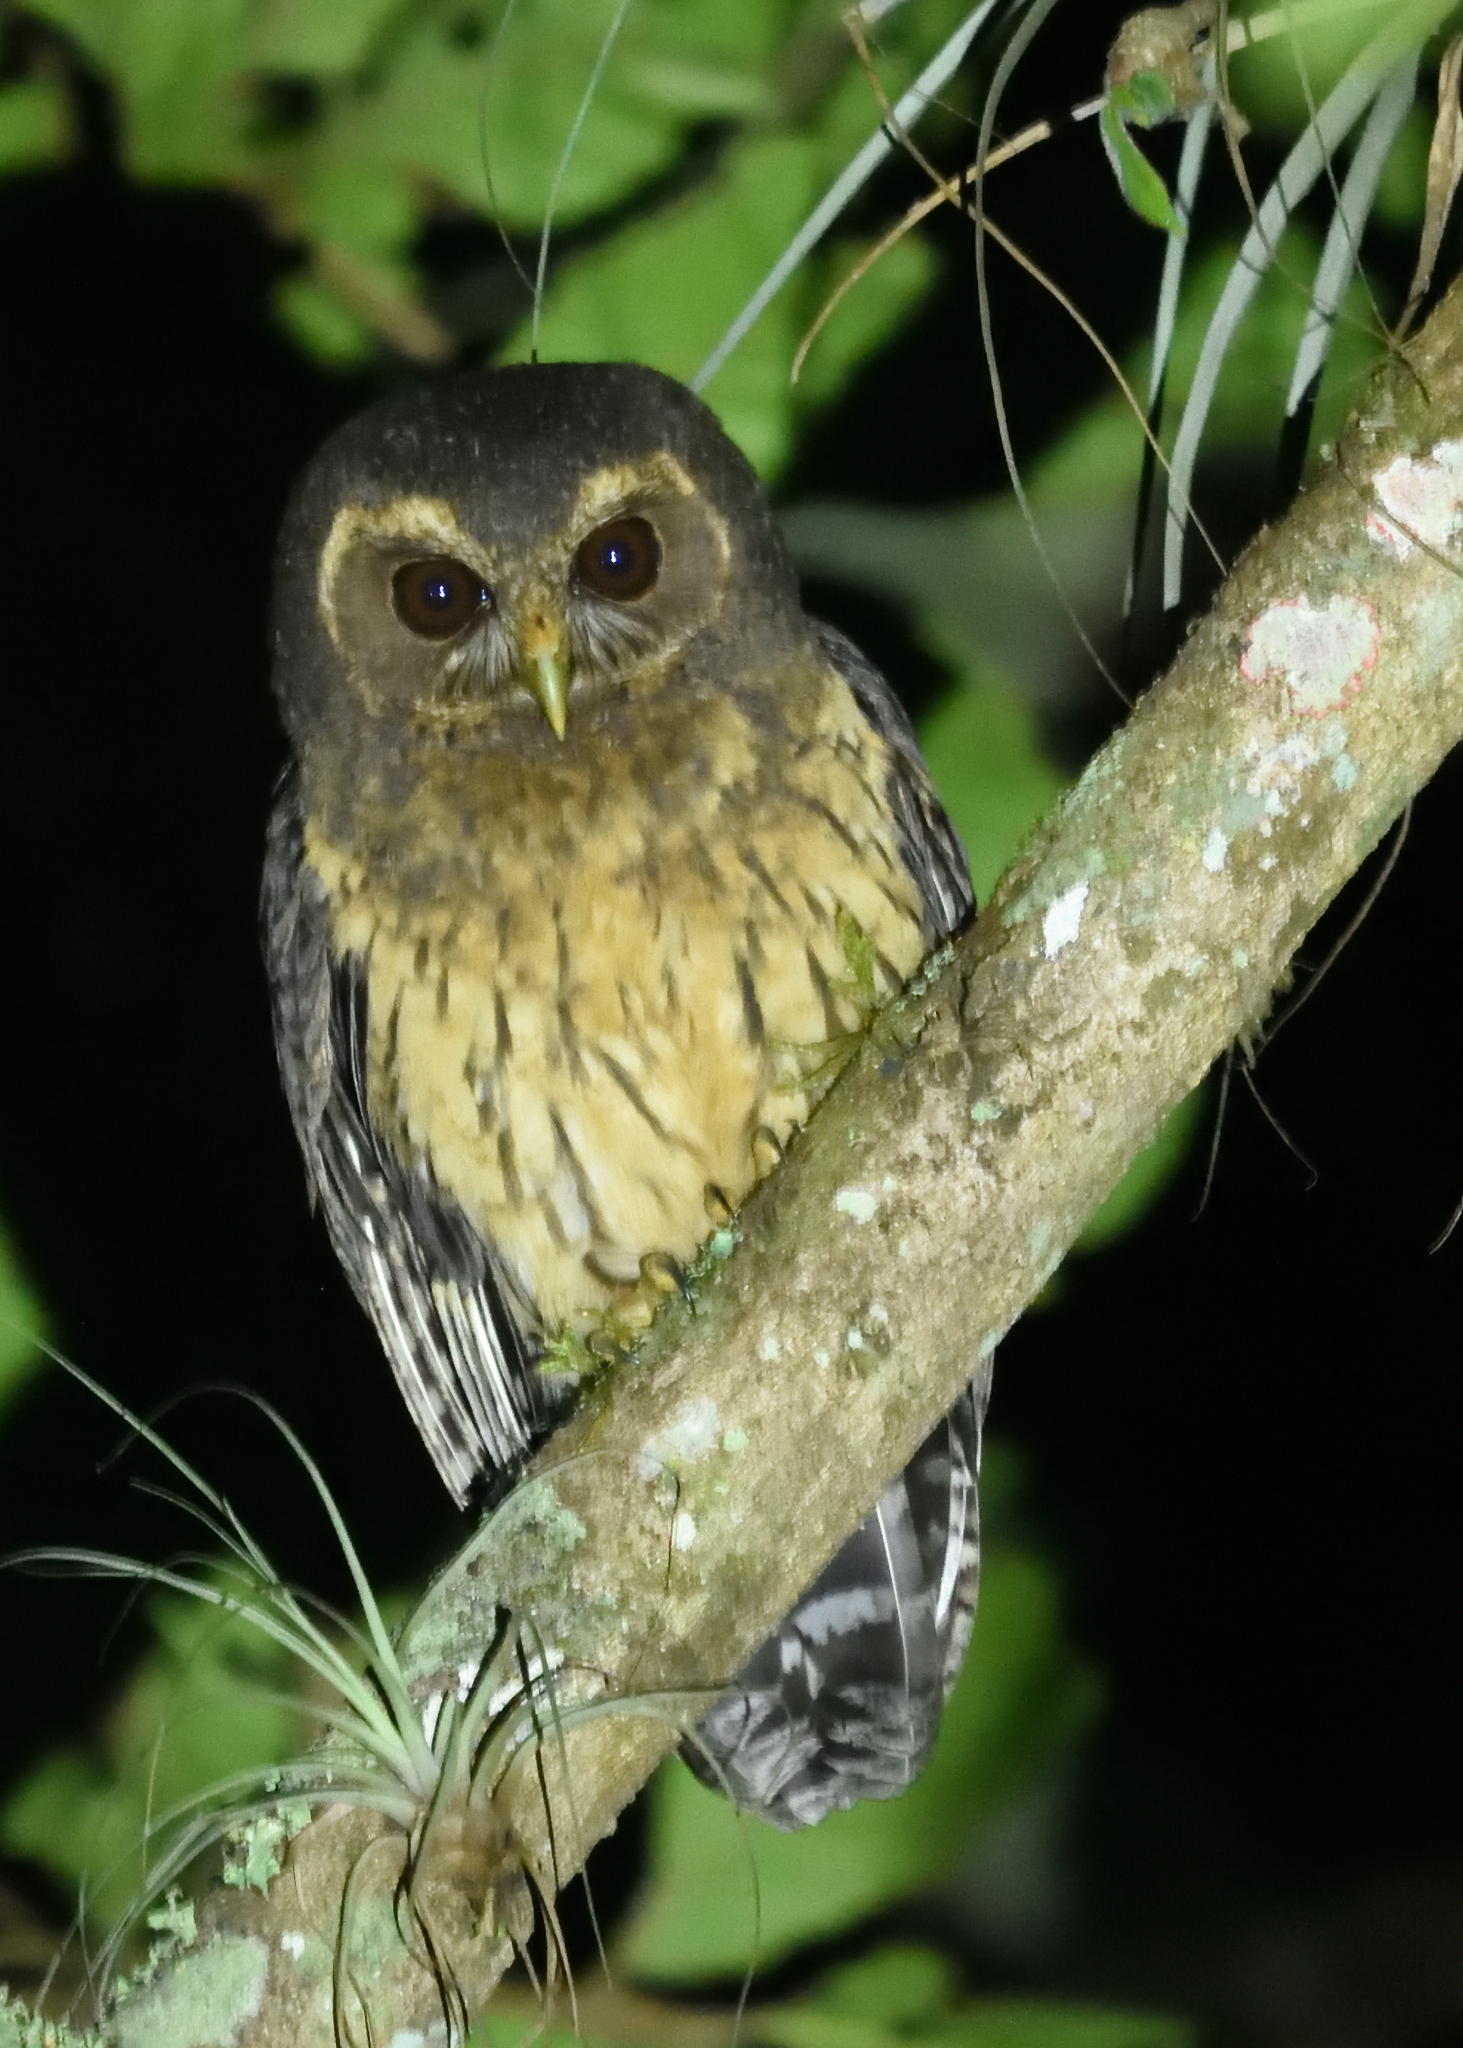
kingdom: Animalia
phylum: Chordata
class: Aves
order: Strigiformes
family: Strigidae
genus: Strix
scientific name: Strix virgata
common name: Mottled owl
